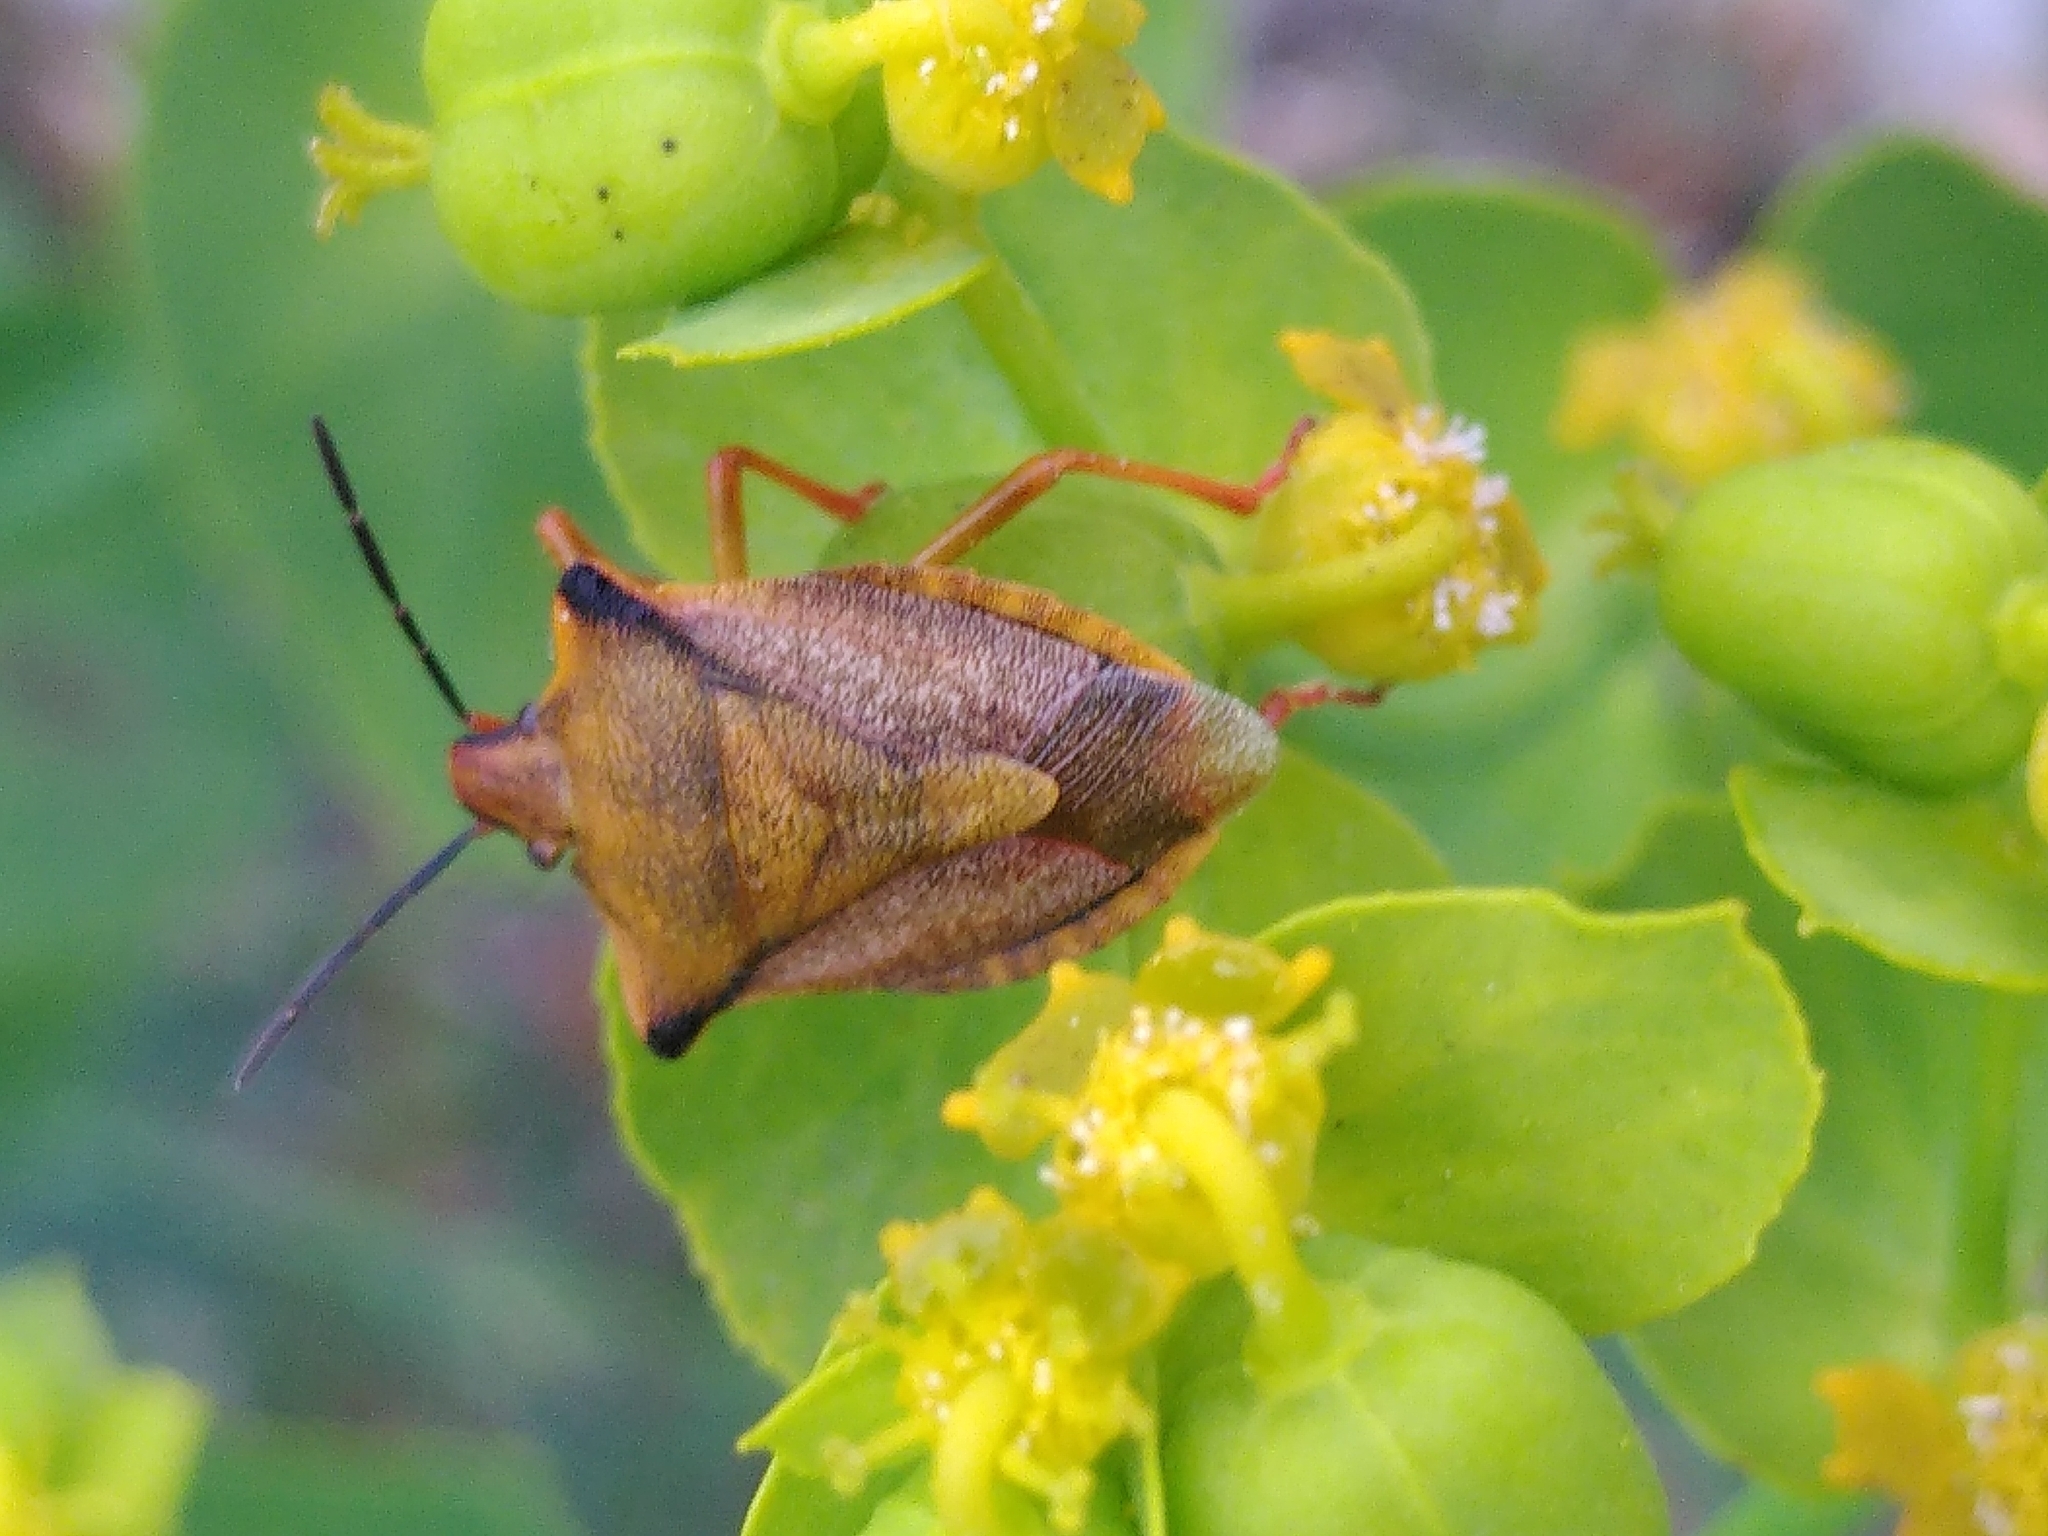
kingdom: Animalia
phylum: Arthropoda
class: Insecta
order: Hemiptera
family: Pentatomidae
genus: Carpocoris
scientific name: Carpocoris mediterraneus
